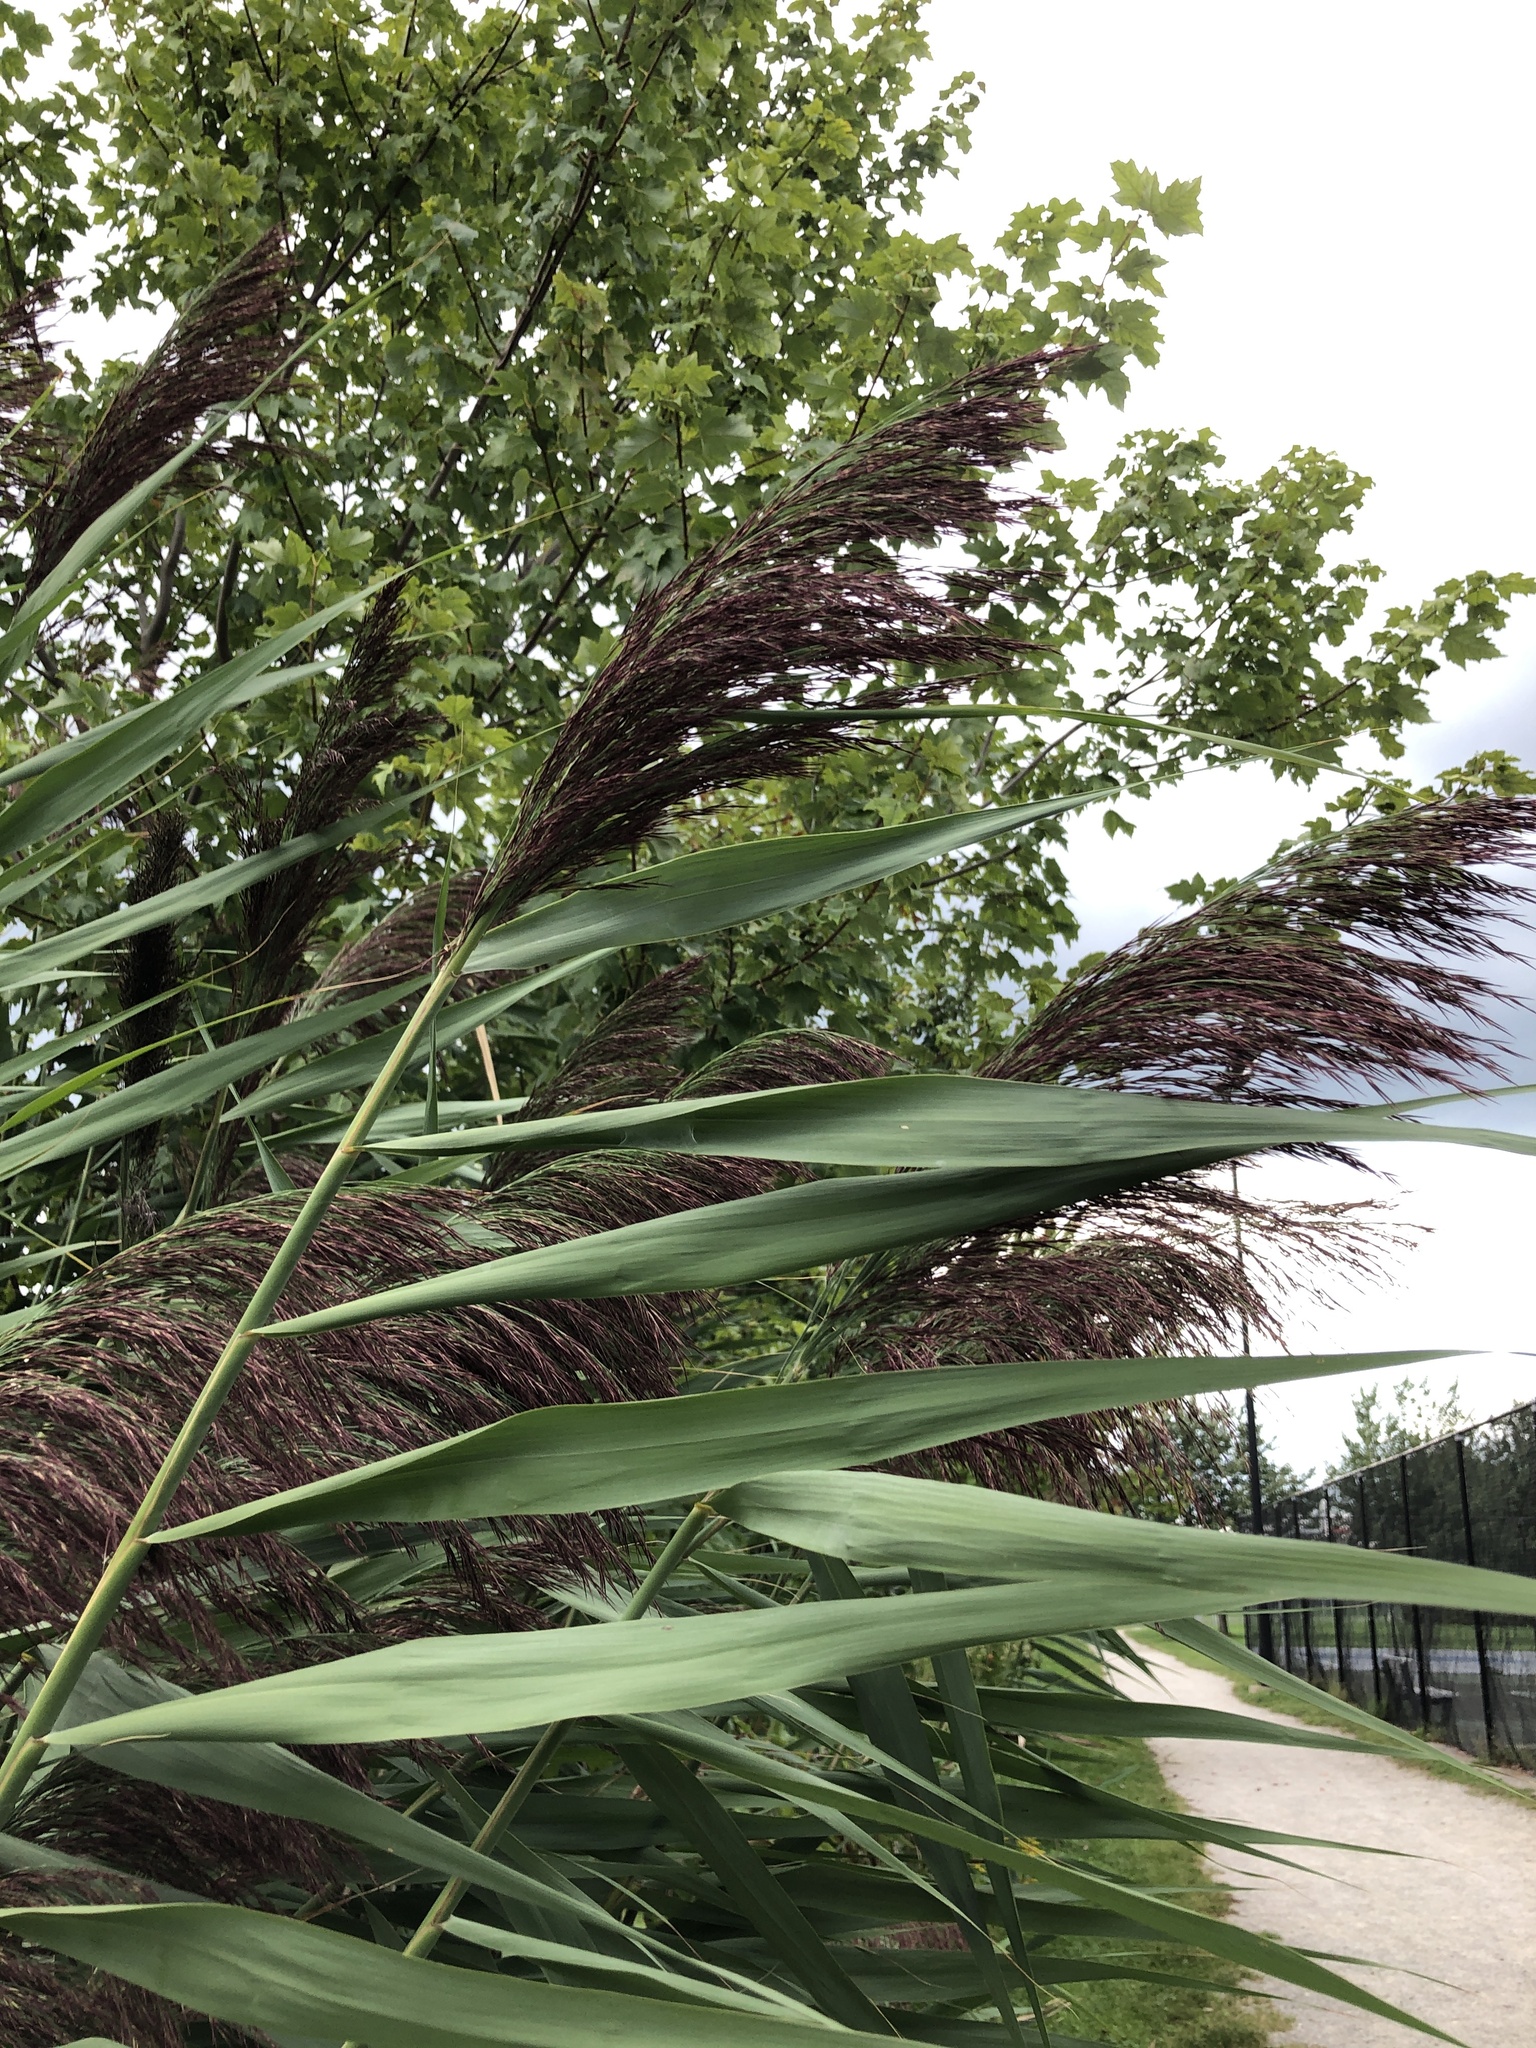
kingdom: Plantae
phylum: Tracheophyta
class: Liliopsida
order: Poales
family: Poaceae
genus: Phragmites
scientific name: Phragmites australis
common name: Common reed
